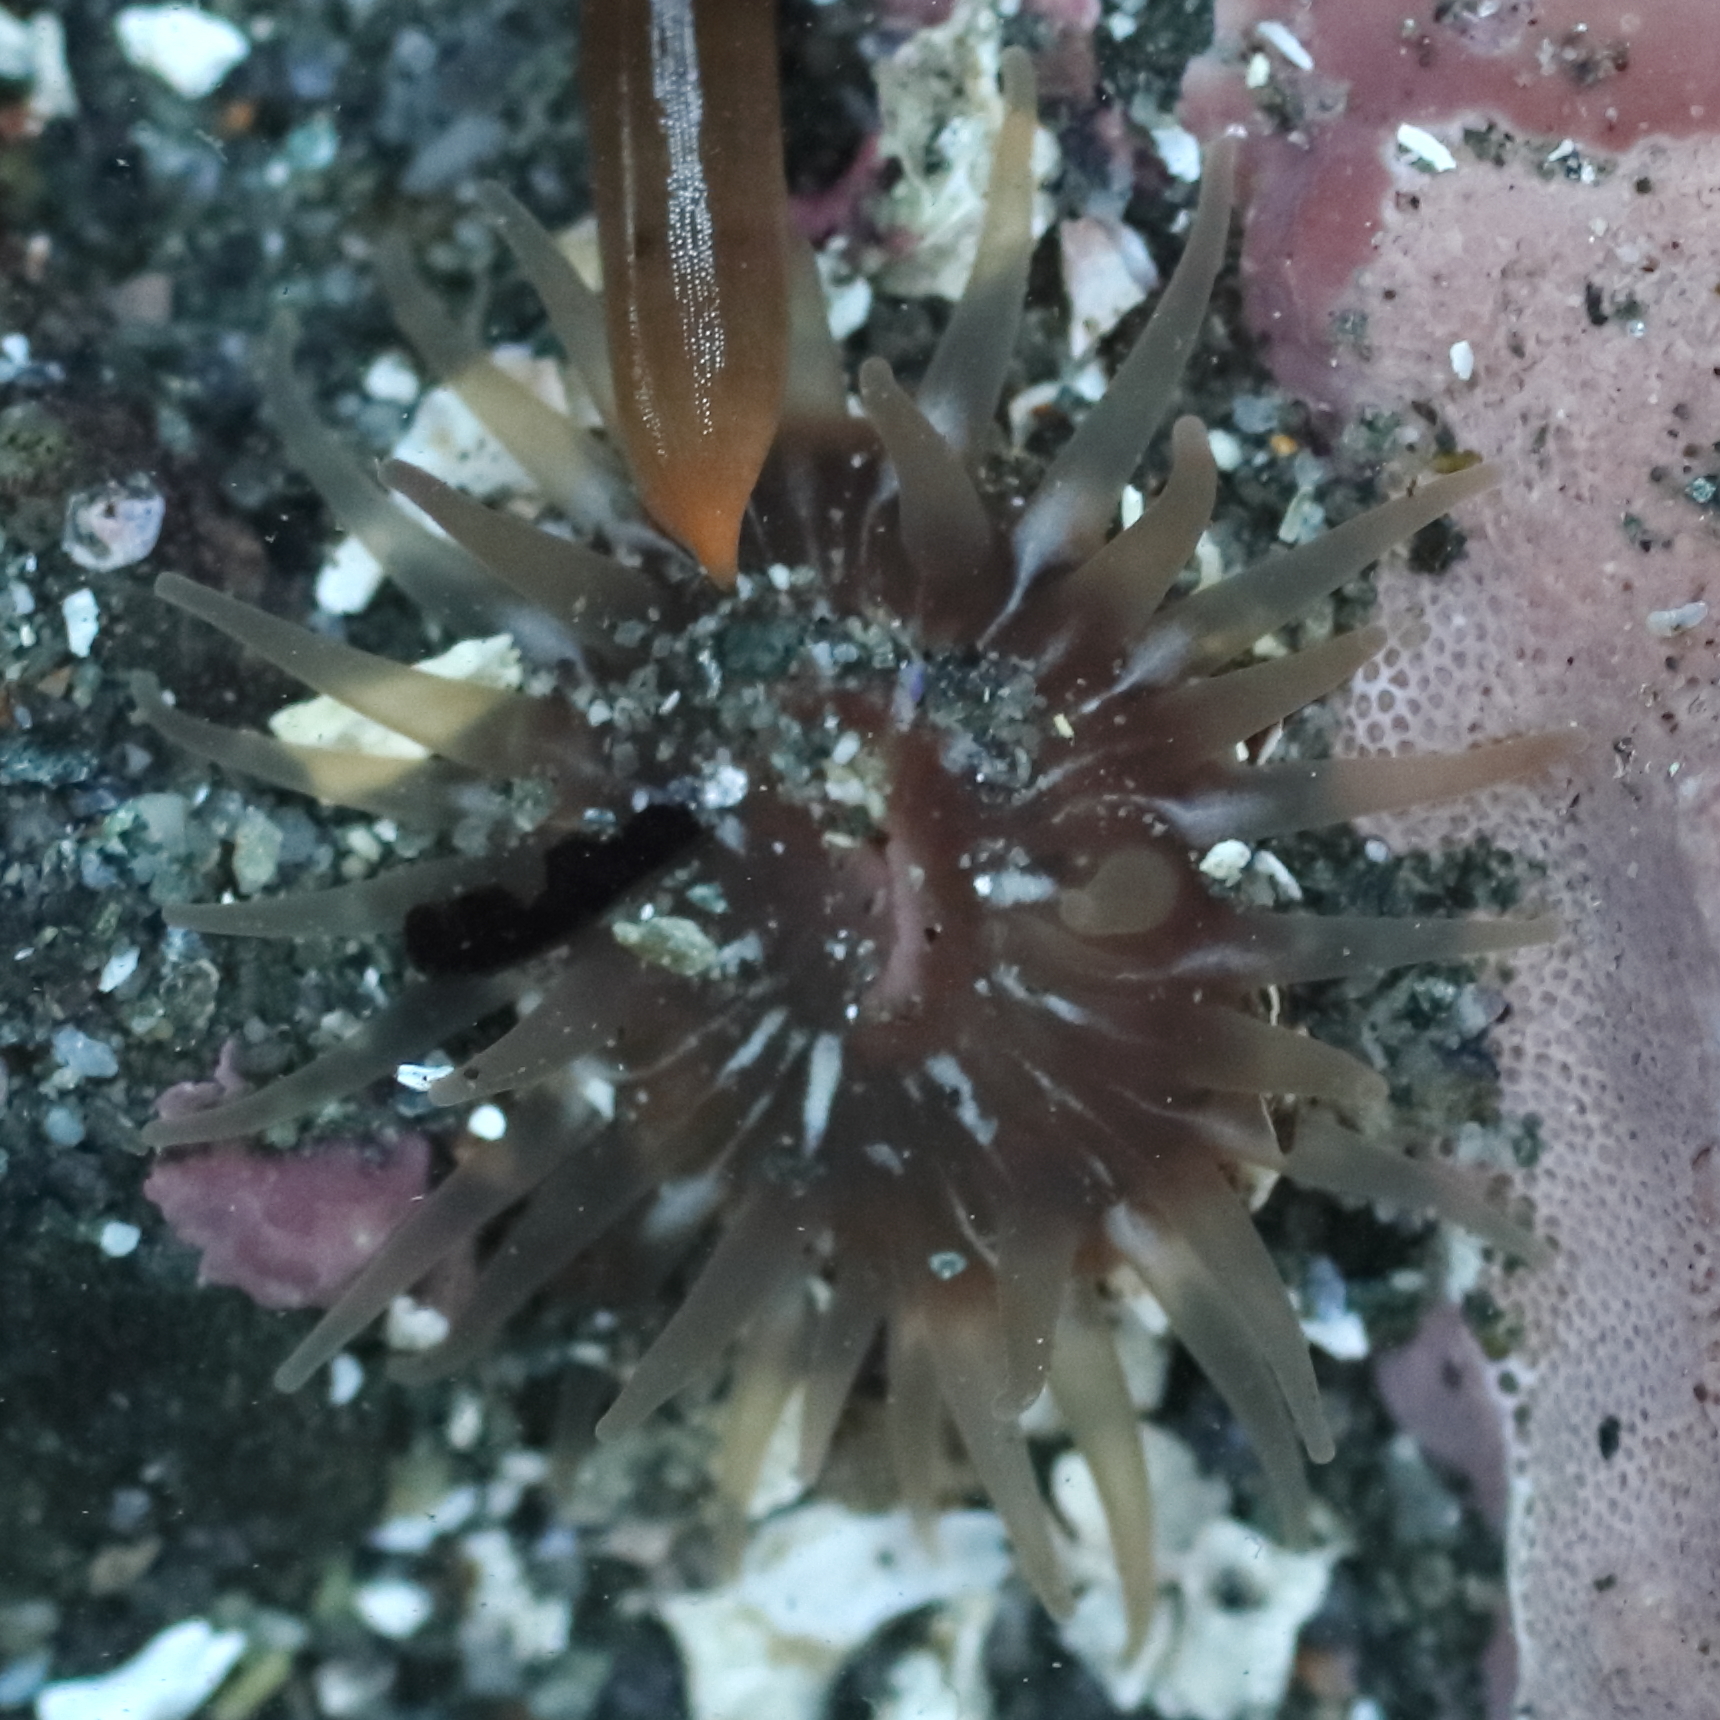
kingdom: Animalia
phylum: Cnidaria
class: Anthozoa
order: Actiniaria
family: Actiniidae
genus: Aulactinia
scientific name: Aulactinia incubans
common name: Incubating anemone
